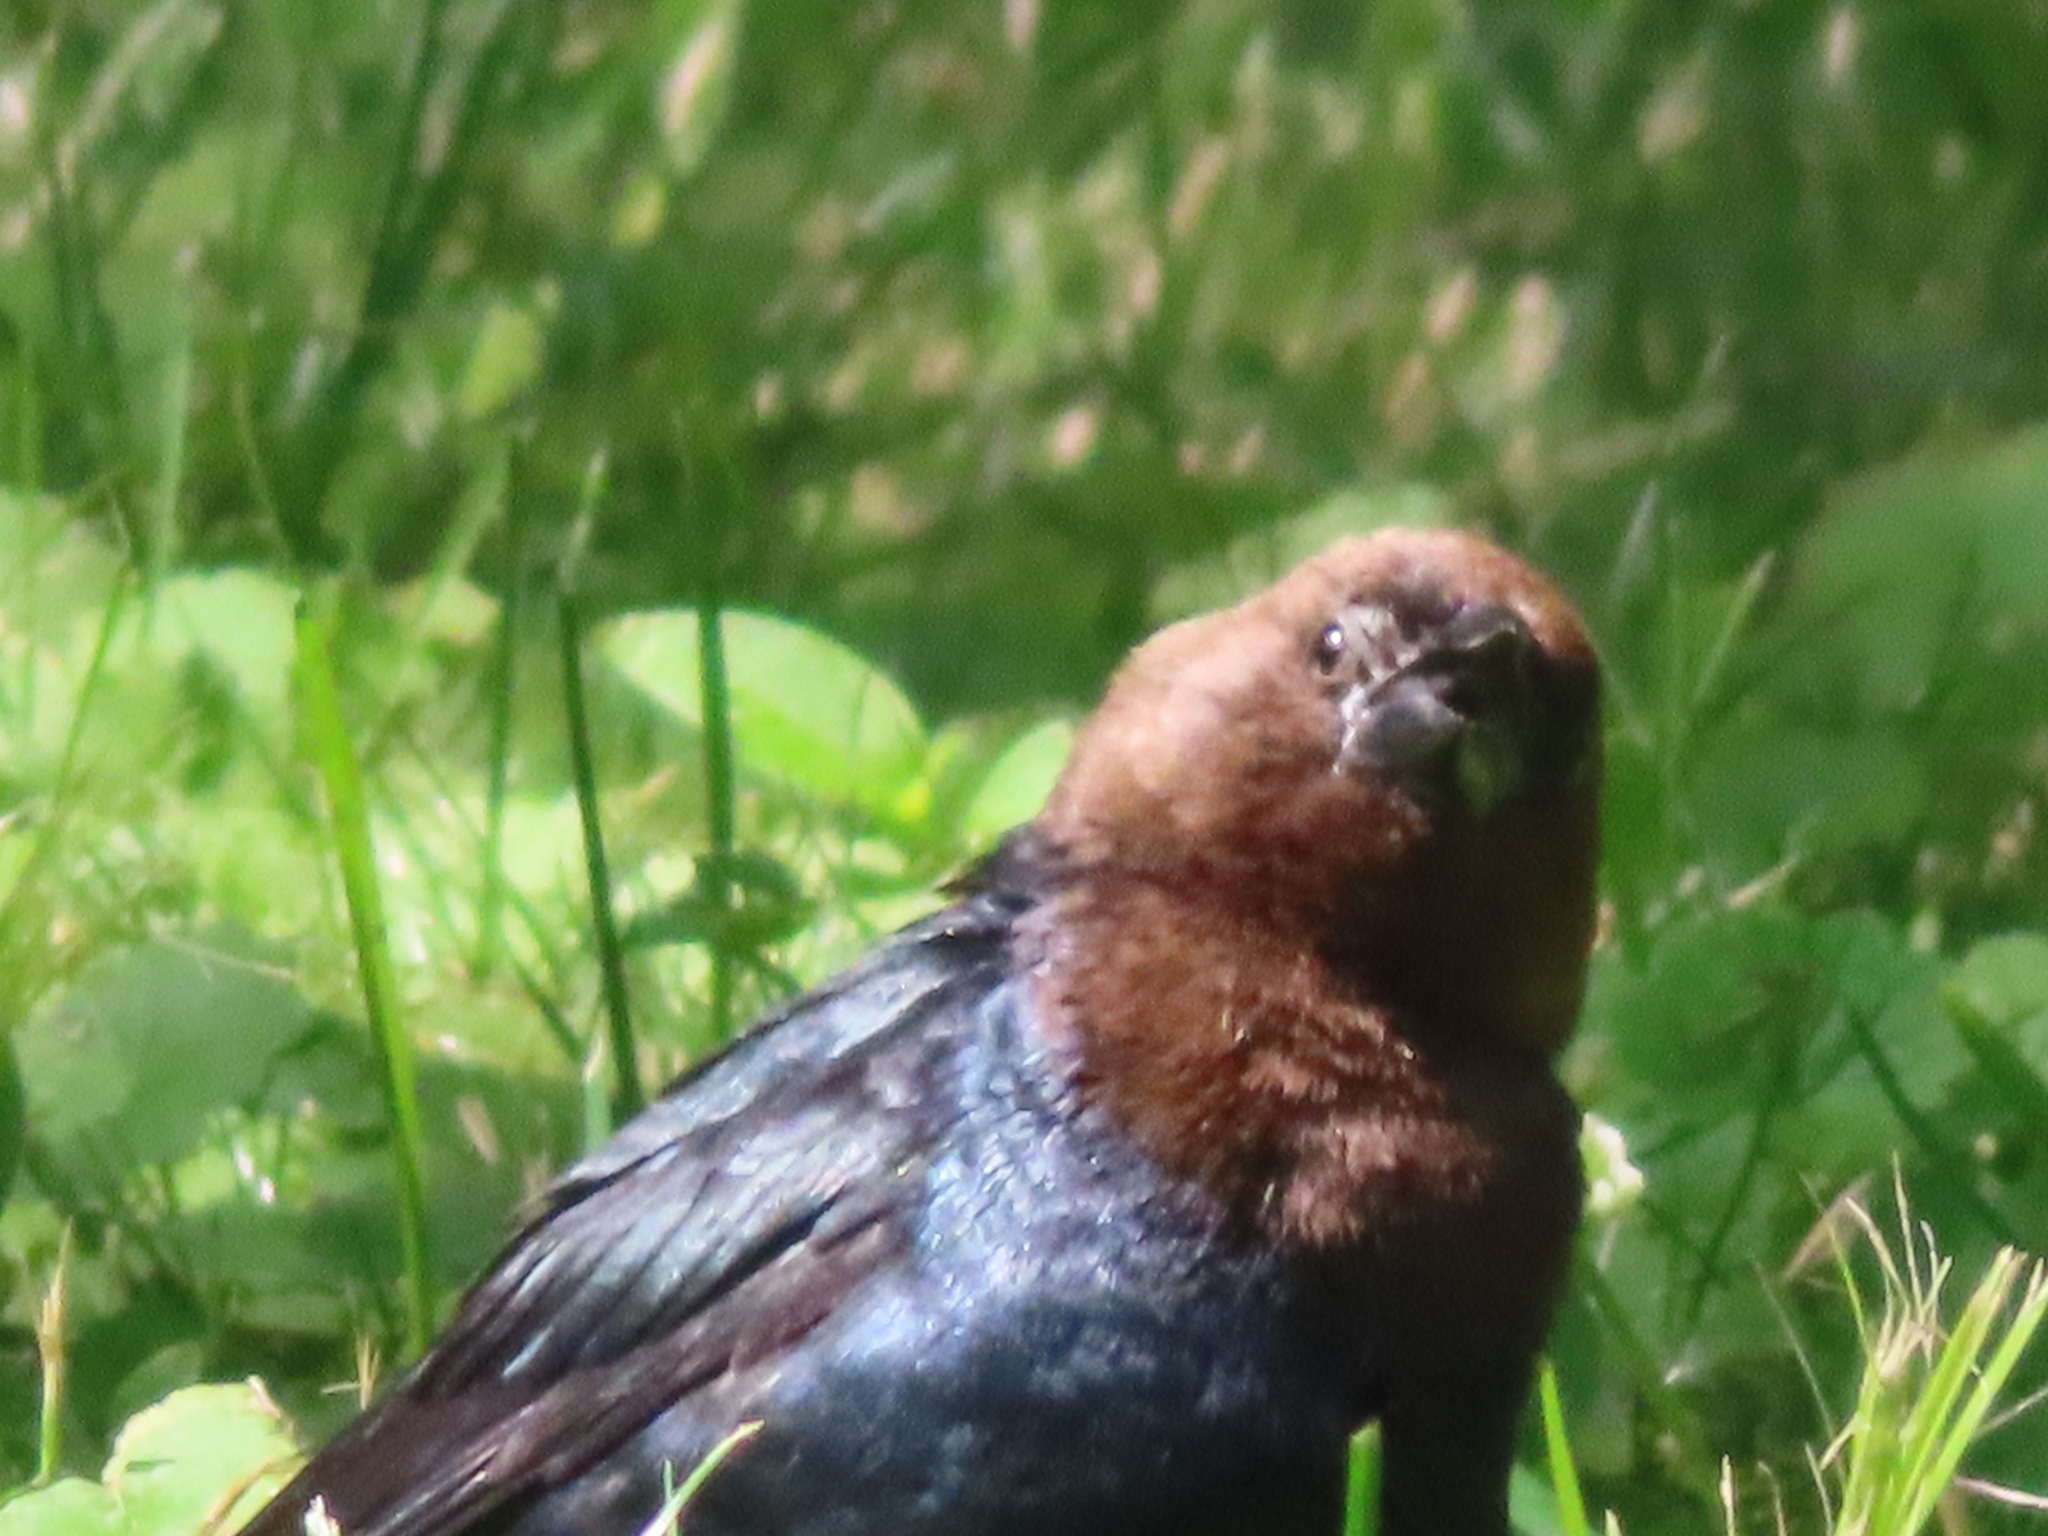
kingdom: Animalia
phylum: Chordata
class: Aves
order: Passeriformes
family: Icteridae
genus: Molothrus
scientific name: Molothrus ater
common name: Brown-headed cowbird
